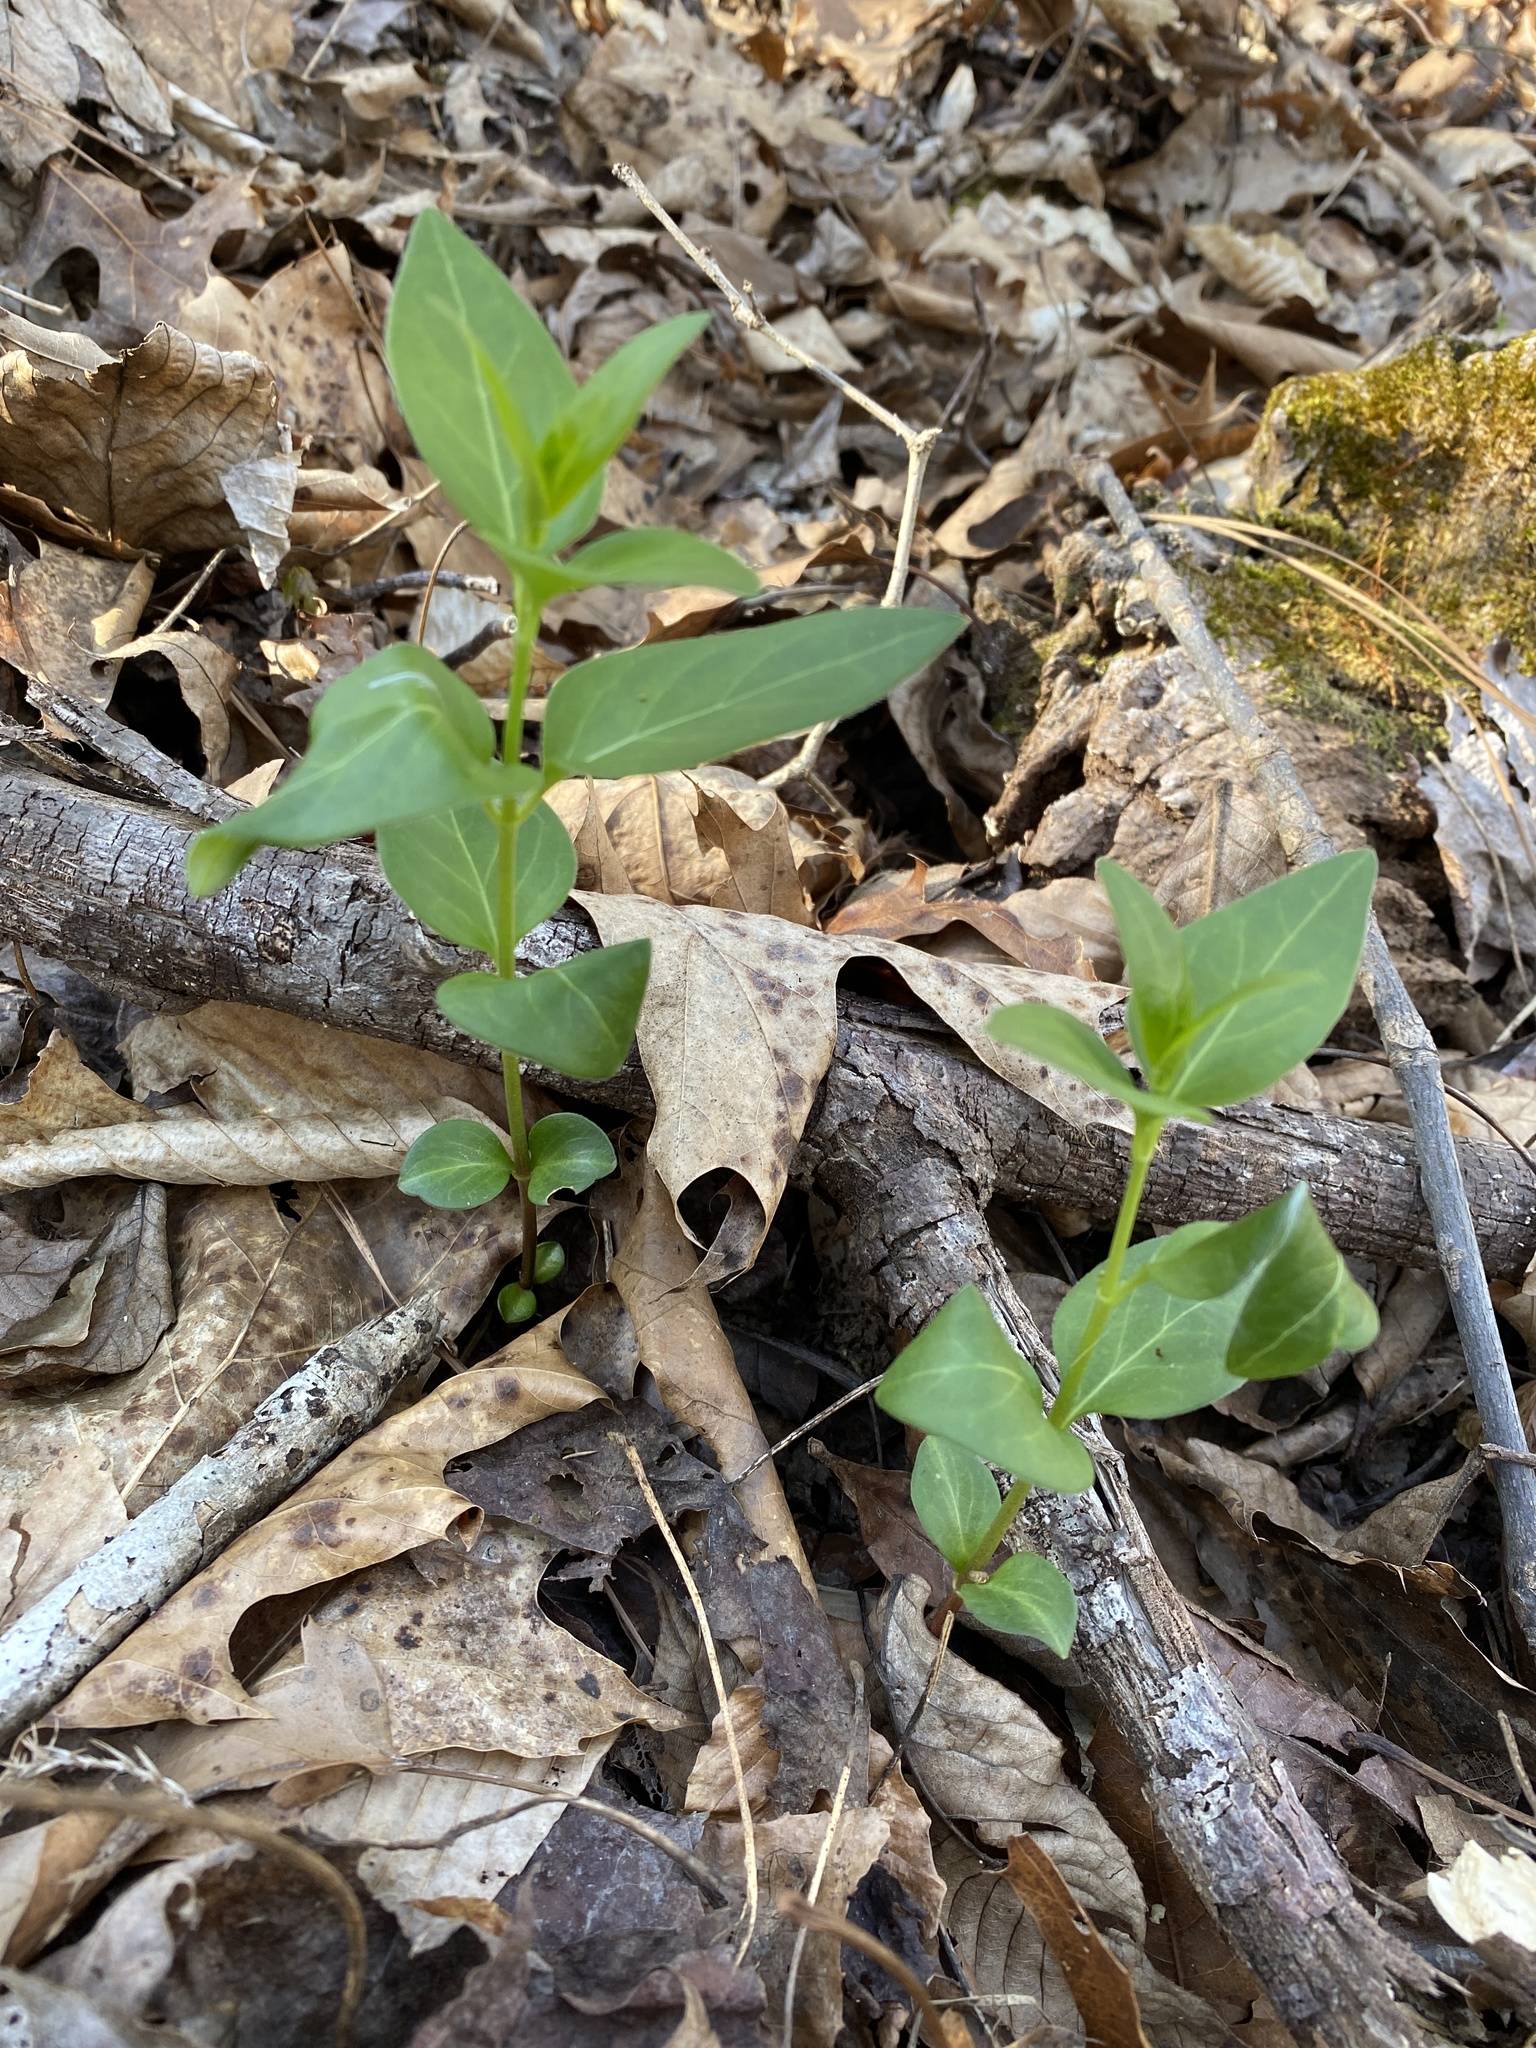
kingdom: Plantae
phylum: Tracheophyta
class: Magnoliopsida
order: Gentianales
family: Apocynaceae
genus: Vinca
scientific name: Vinca major
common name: Greater periwinkle
